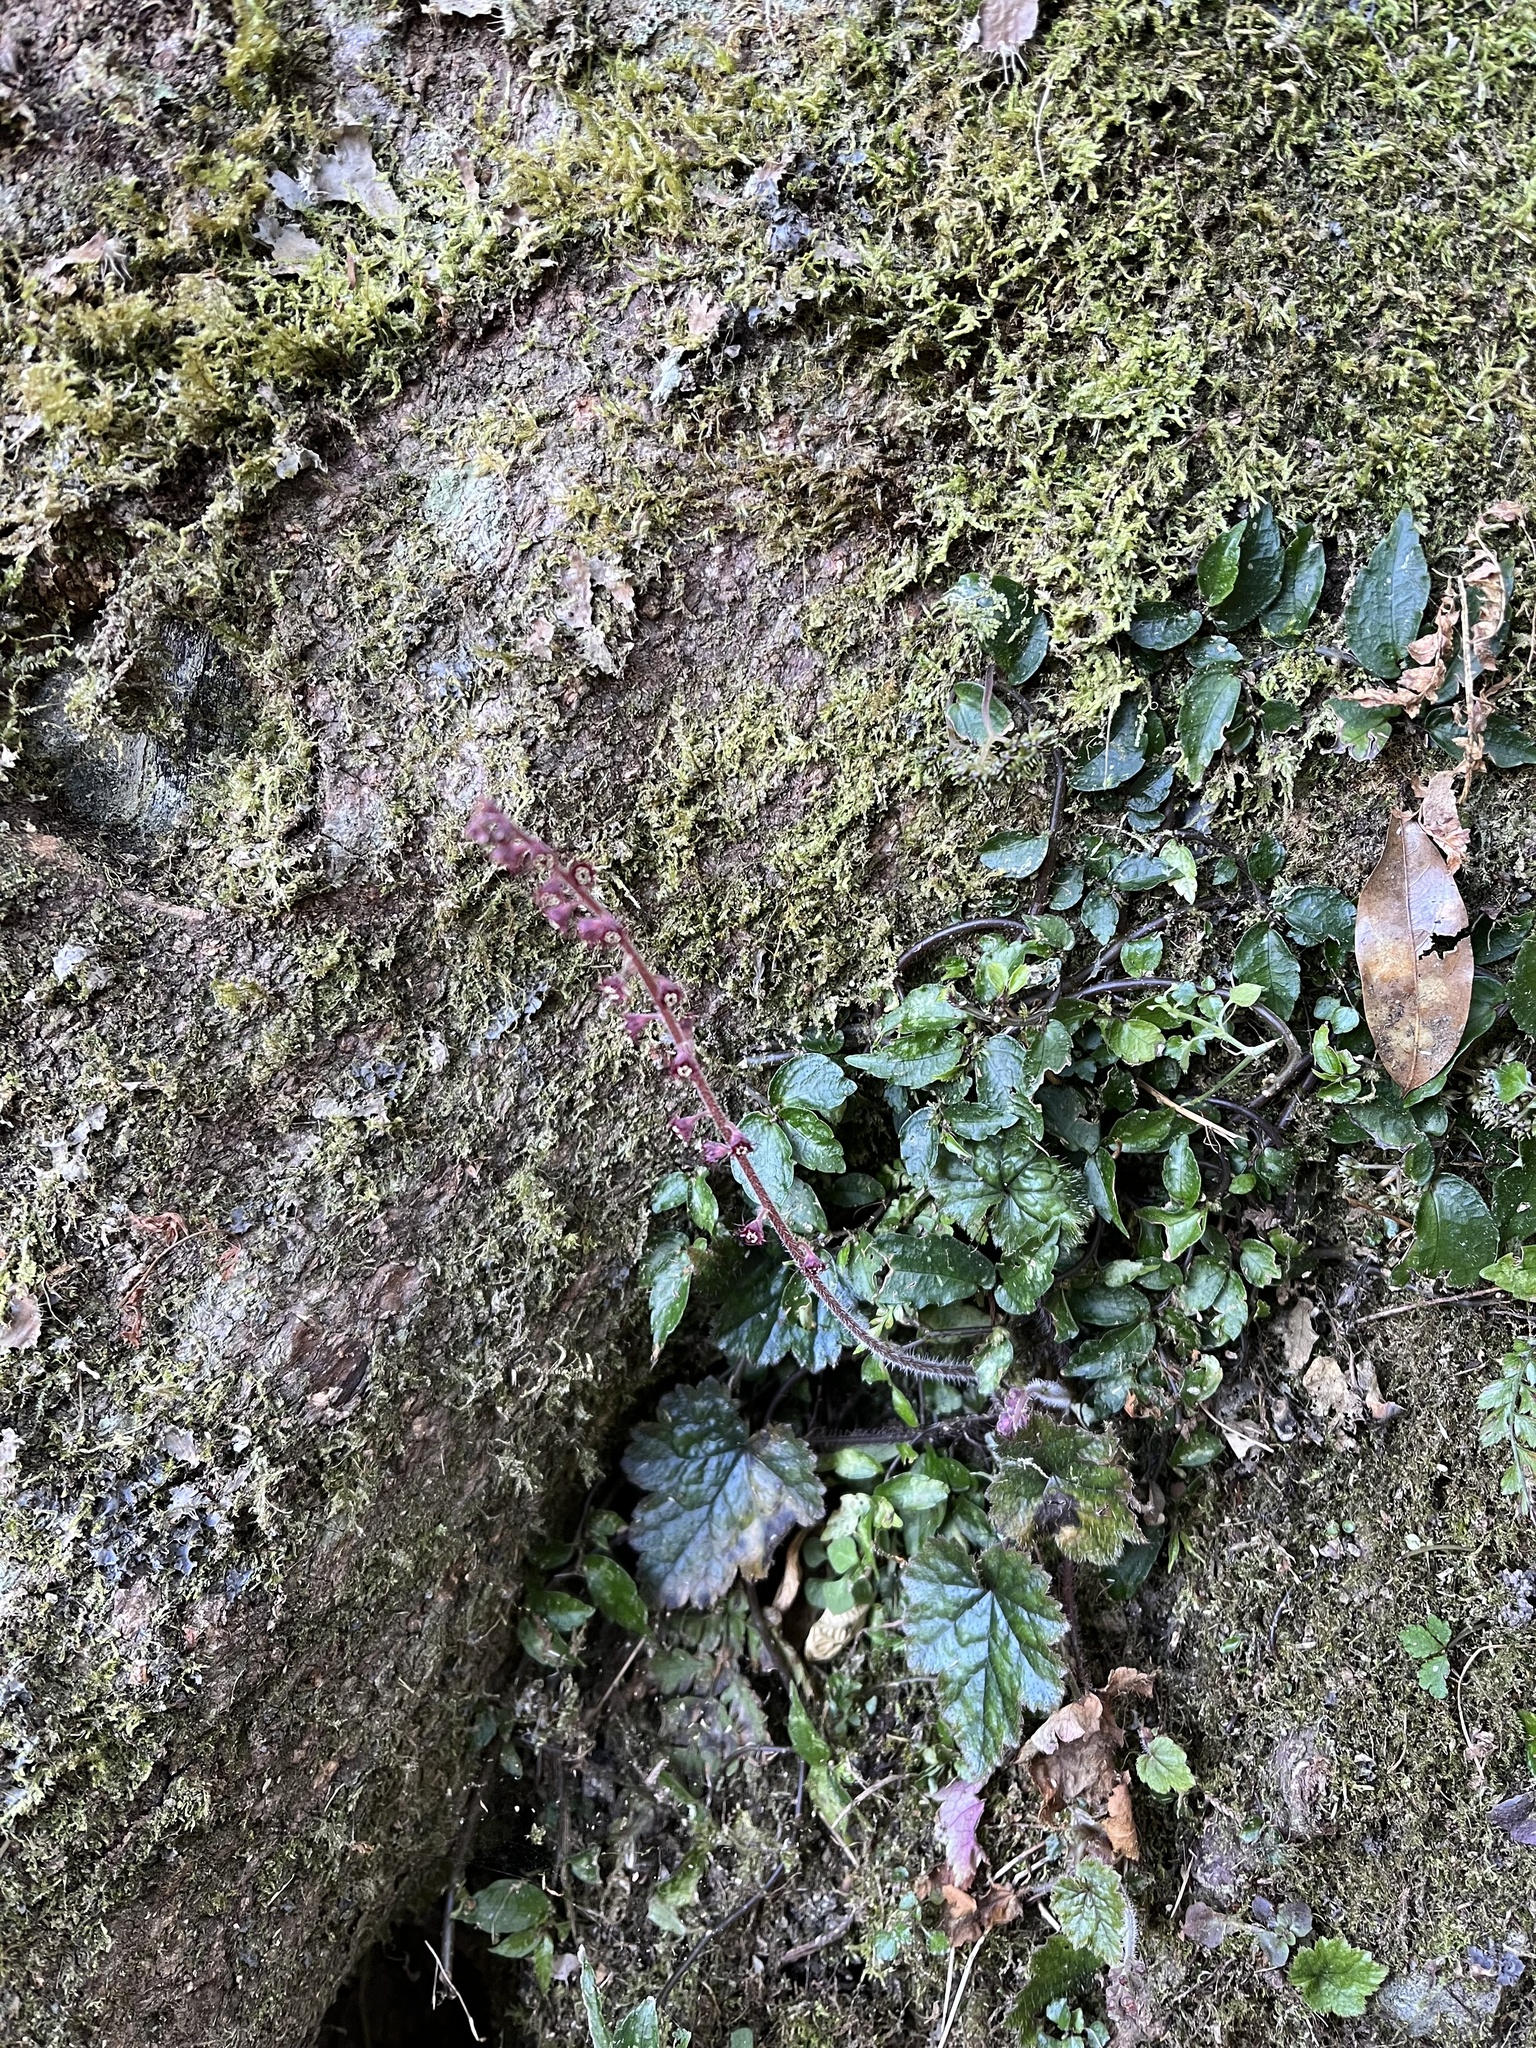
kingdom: Plantae
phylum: Tracheophyta
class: Magnoliopsida
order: Saxifragales
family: Saxifragaceae
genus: Asimitellaria
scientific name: Asimitellaria formosana
